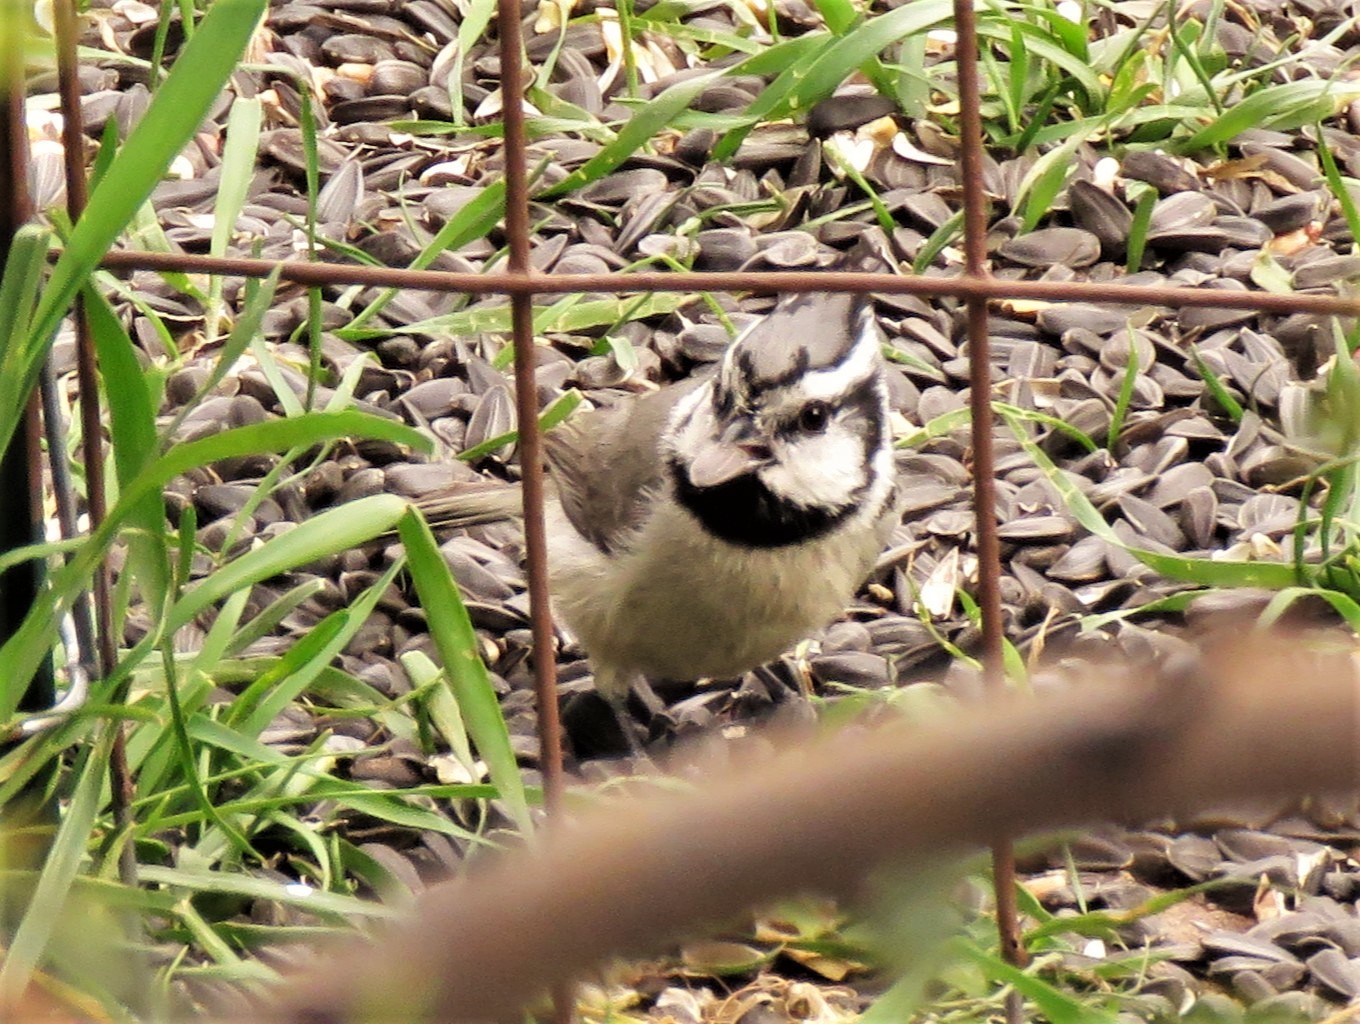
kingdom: Animalia
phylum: Chordata
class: Aves
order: Passeriformes
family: Paridae
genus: Baeolophus
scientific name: Baeolophus wollweberi
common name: Bridled titmouse
